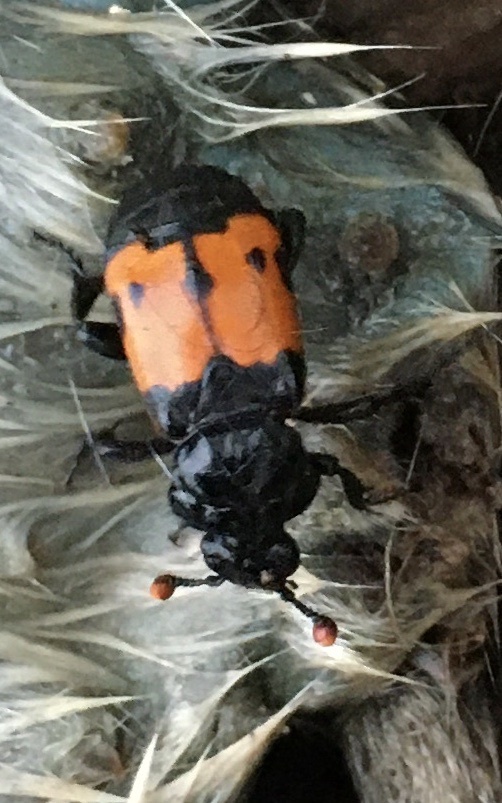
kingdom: Animalia
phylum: Arthropoda
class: Insecta
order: Coleoptera
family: Staphylinidae
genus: Nicrophorus
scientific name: Nicrophorus guttula
